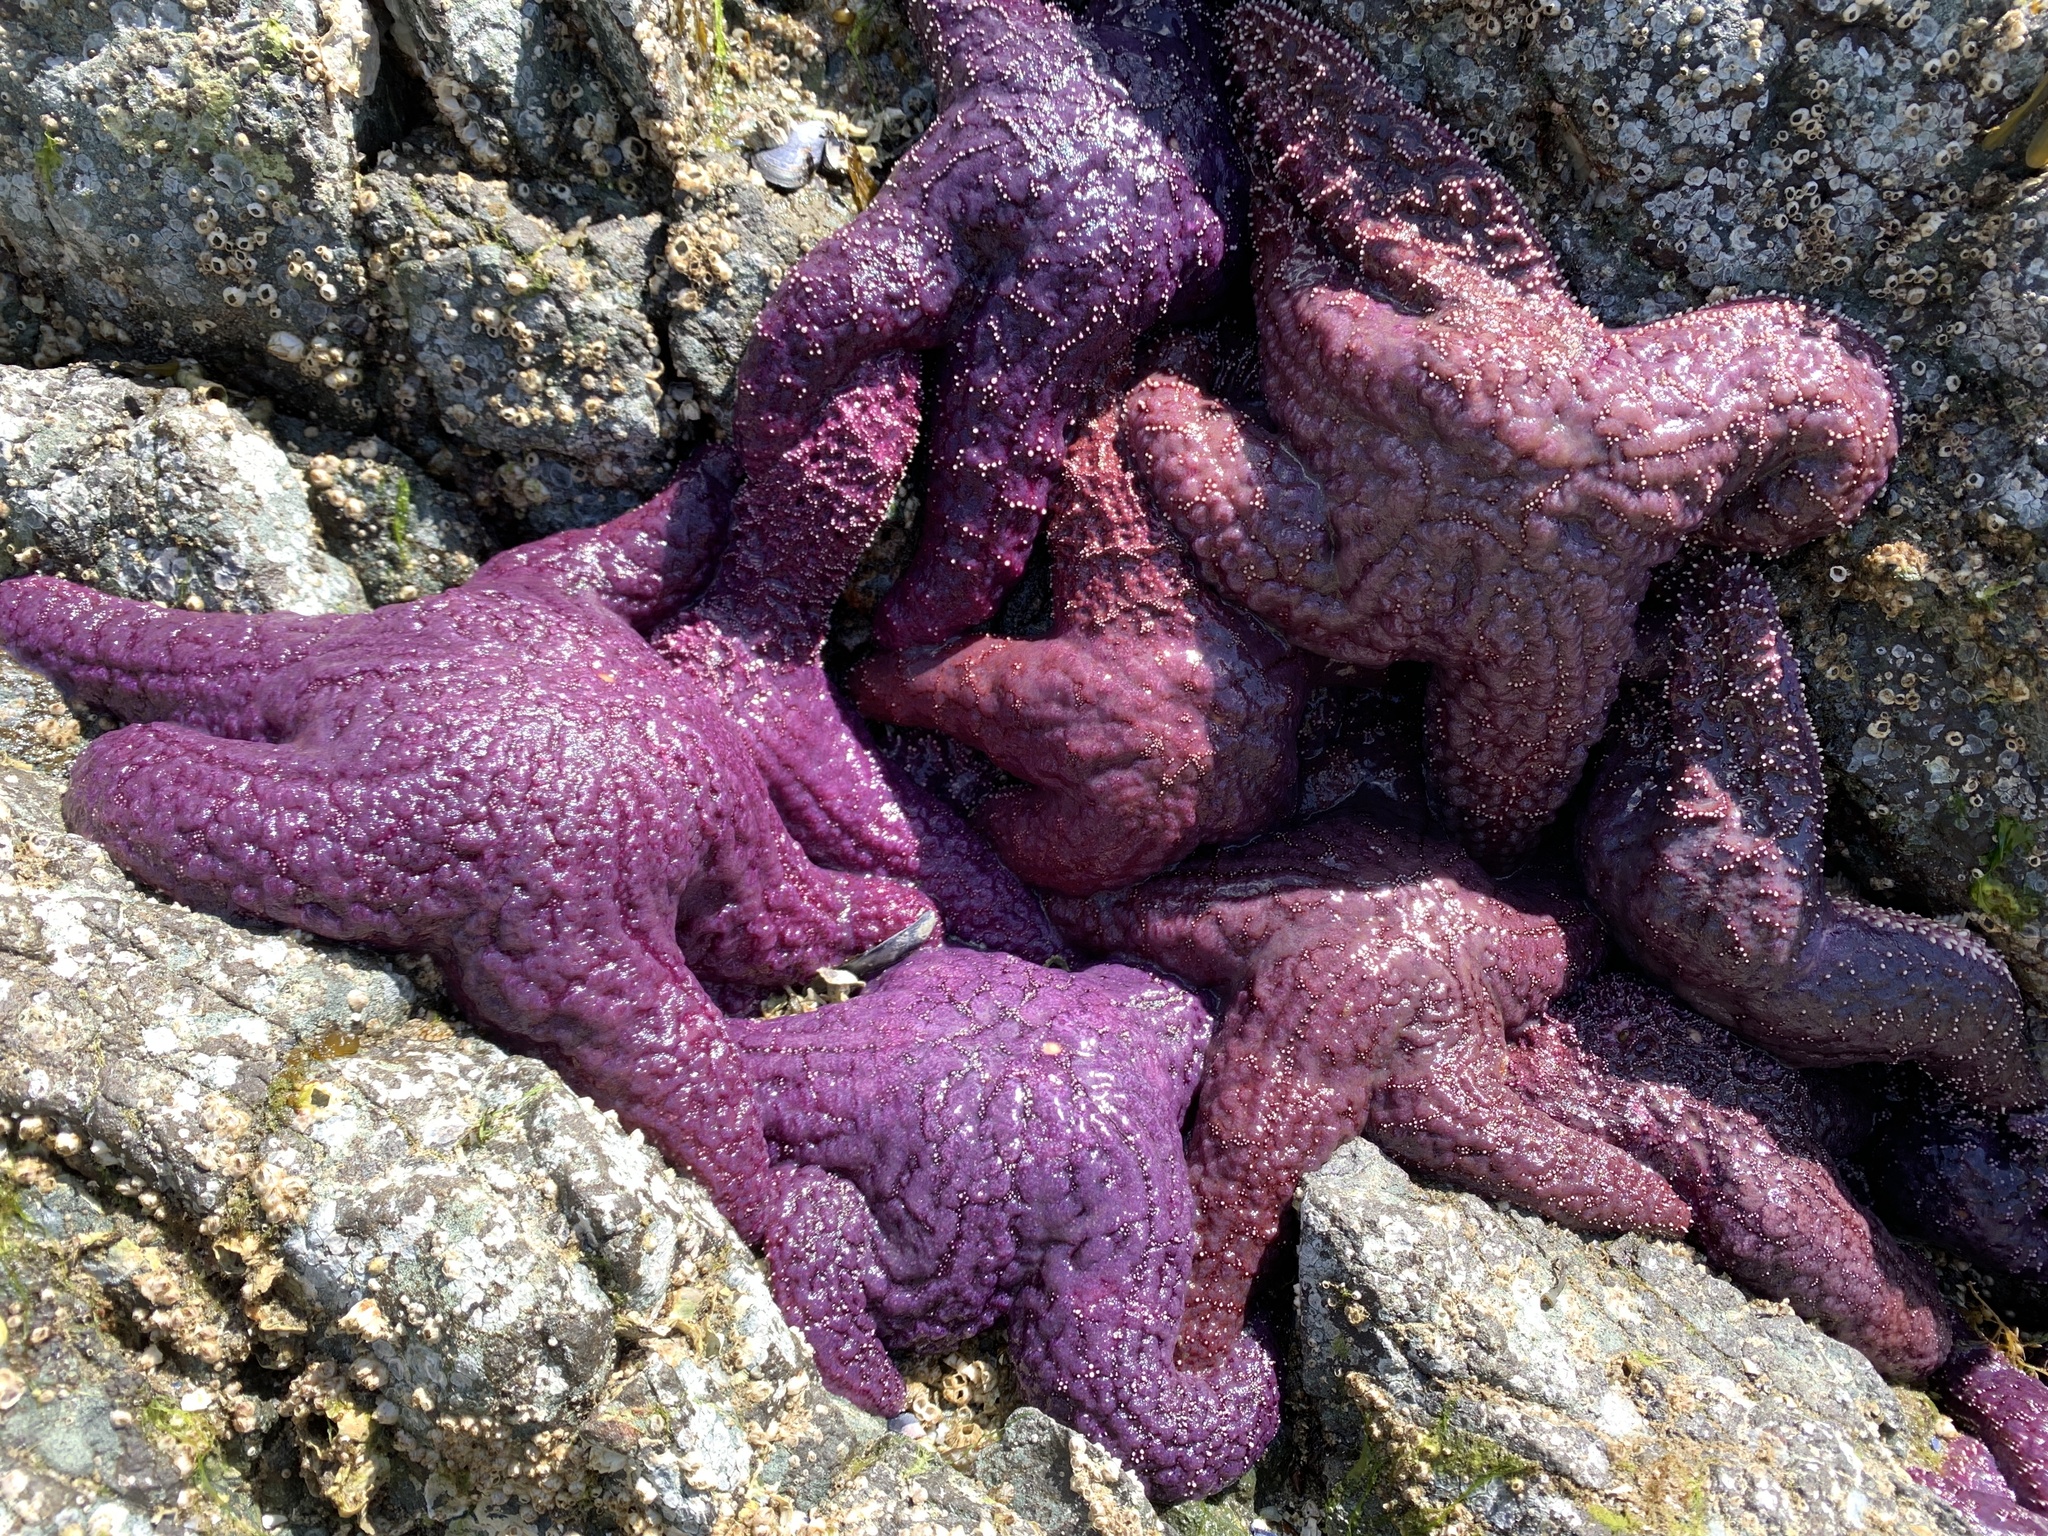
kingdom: Animalia
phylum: Echinodermata
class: Asteroidea
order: Forcipulatida
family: Asteriidae
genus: Pisaster
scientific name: Pisaster ochraceus
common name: Ochre stars
